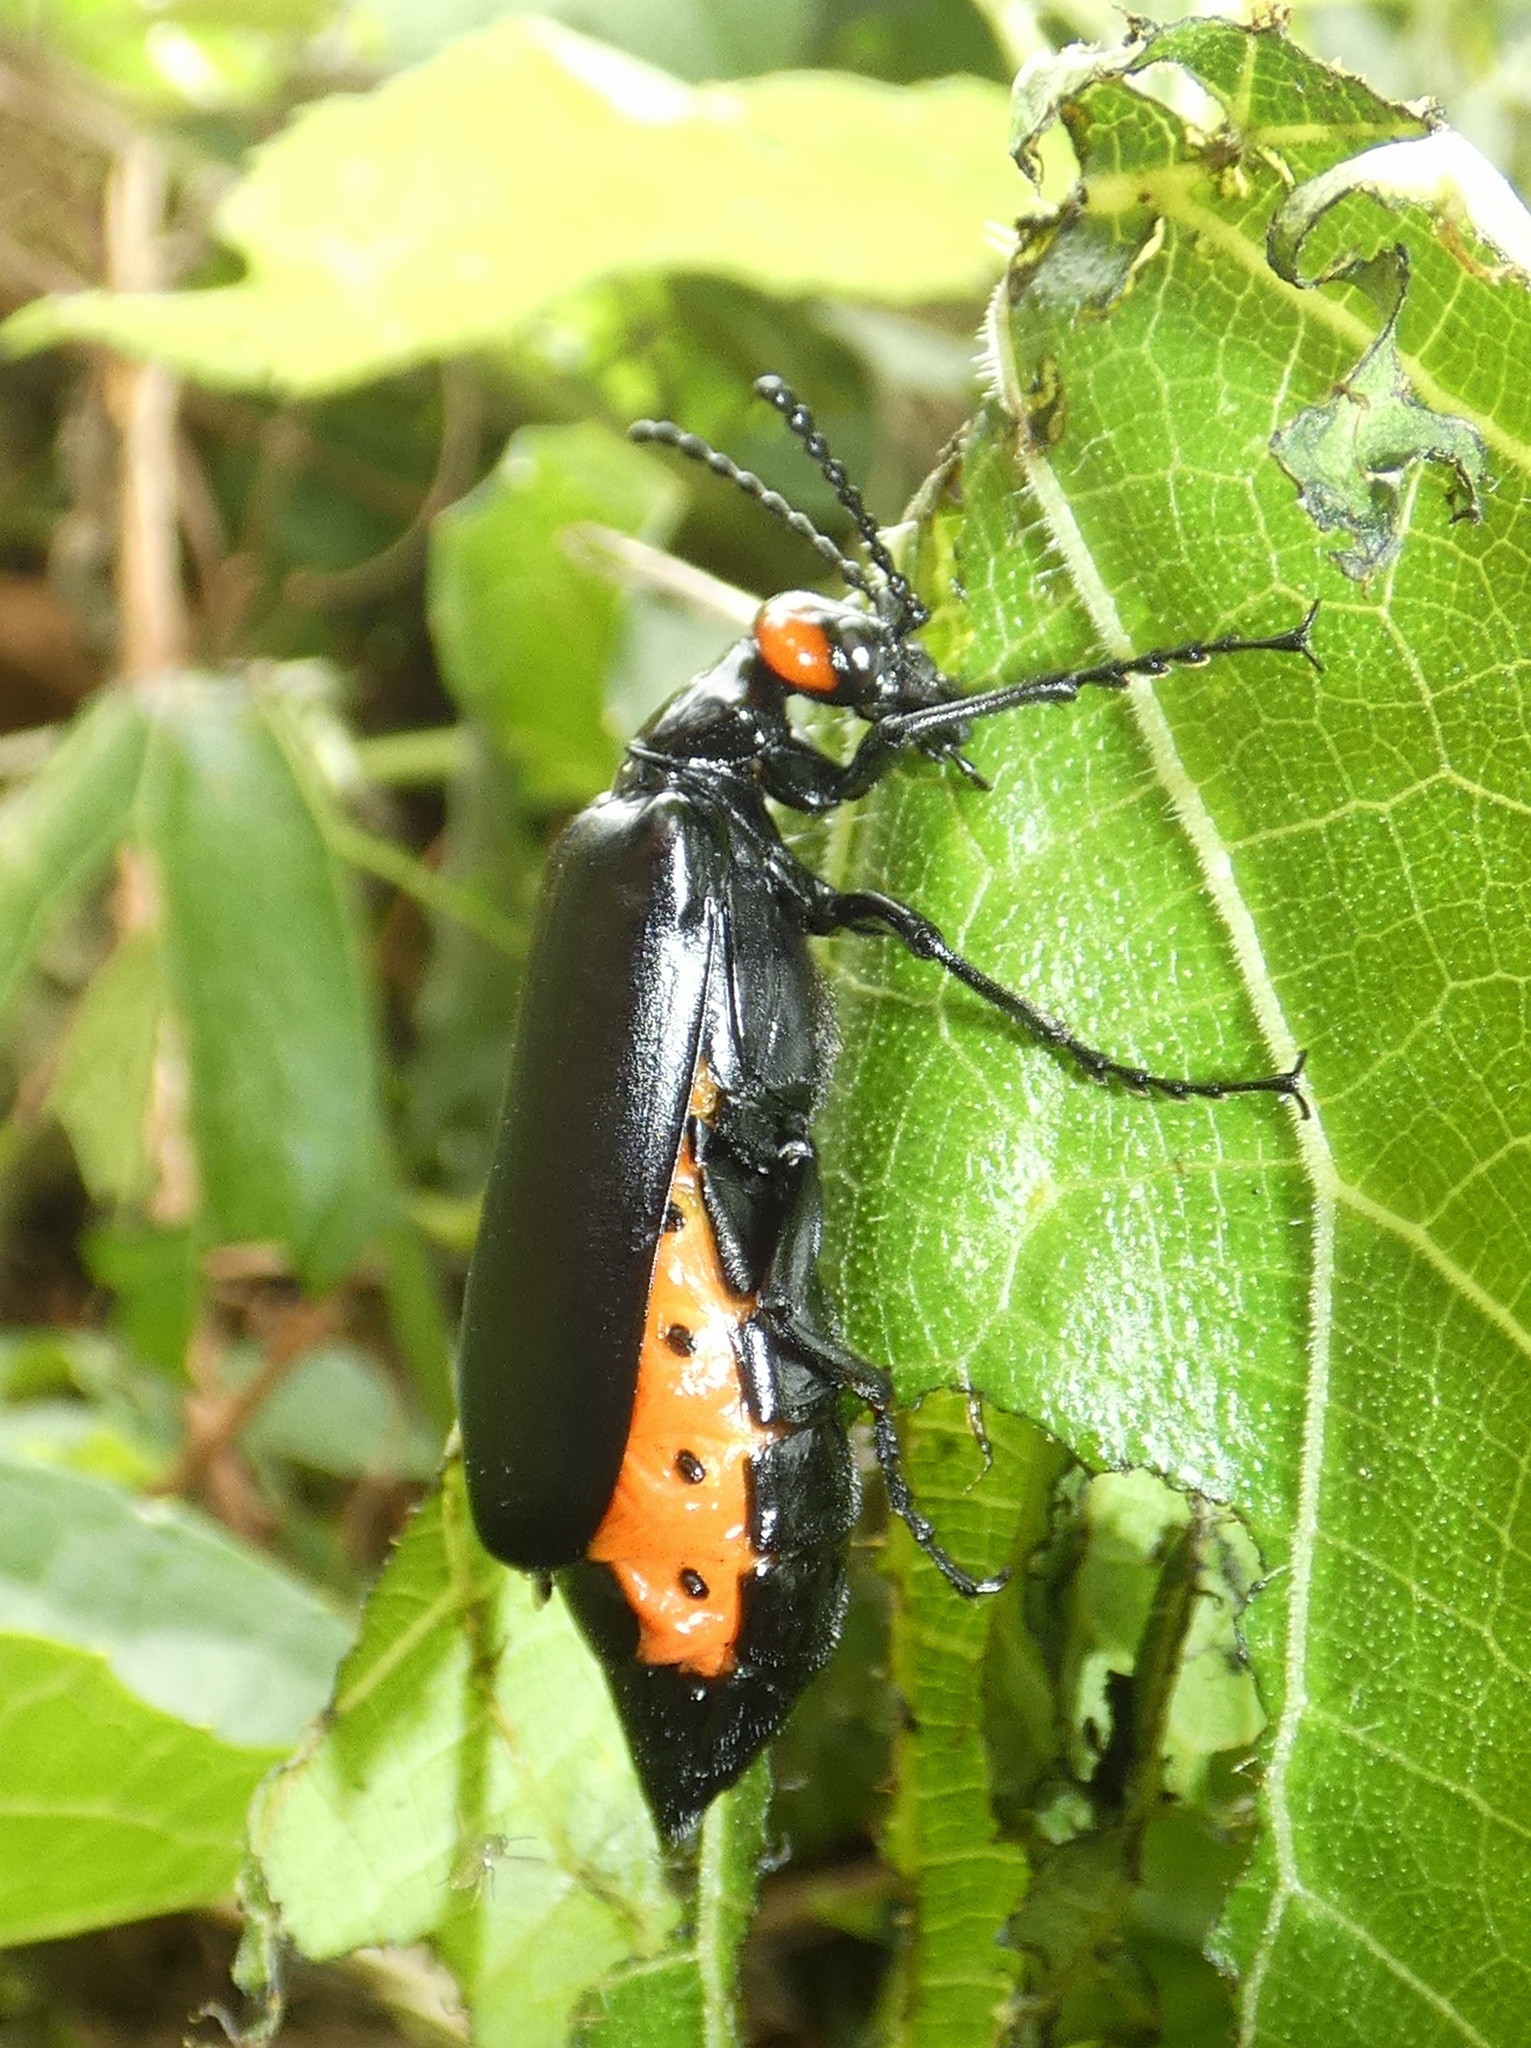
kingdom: Animalia
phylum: Arthropoda
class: Insecta
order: Coleoptera
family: Meloidae
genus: Lytta
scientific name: Lytta eucera
